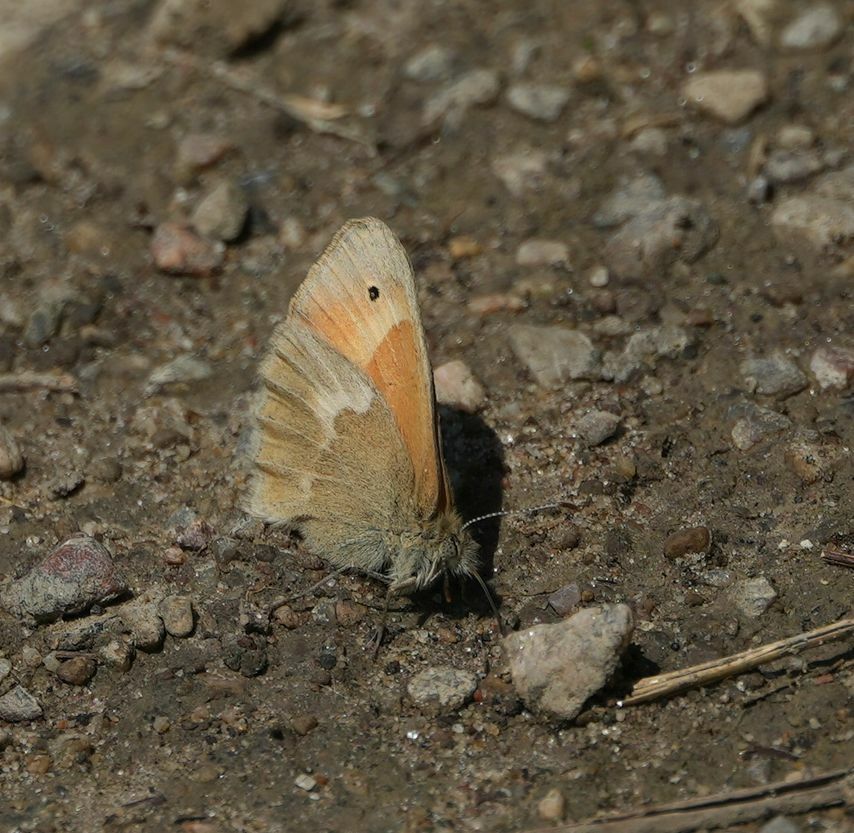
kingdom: Animalia
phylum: Arthropoda
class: Insecta
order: Lepidoptera
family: Nymphalidae
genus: Coenonympha
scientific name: Coenonympha california
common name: Common ringlet
